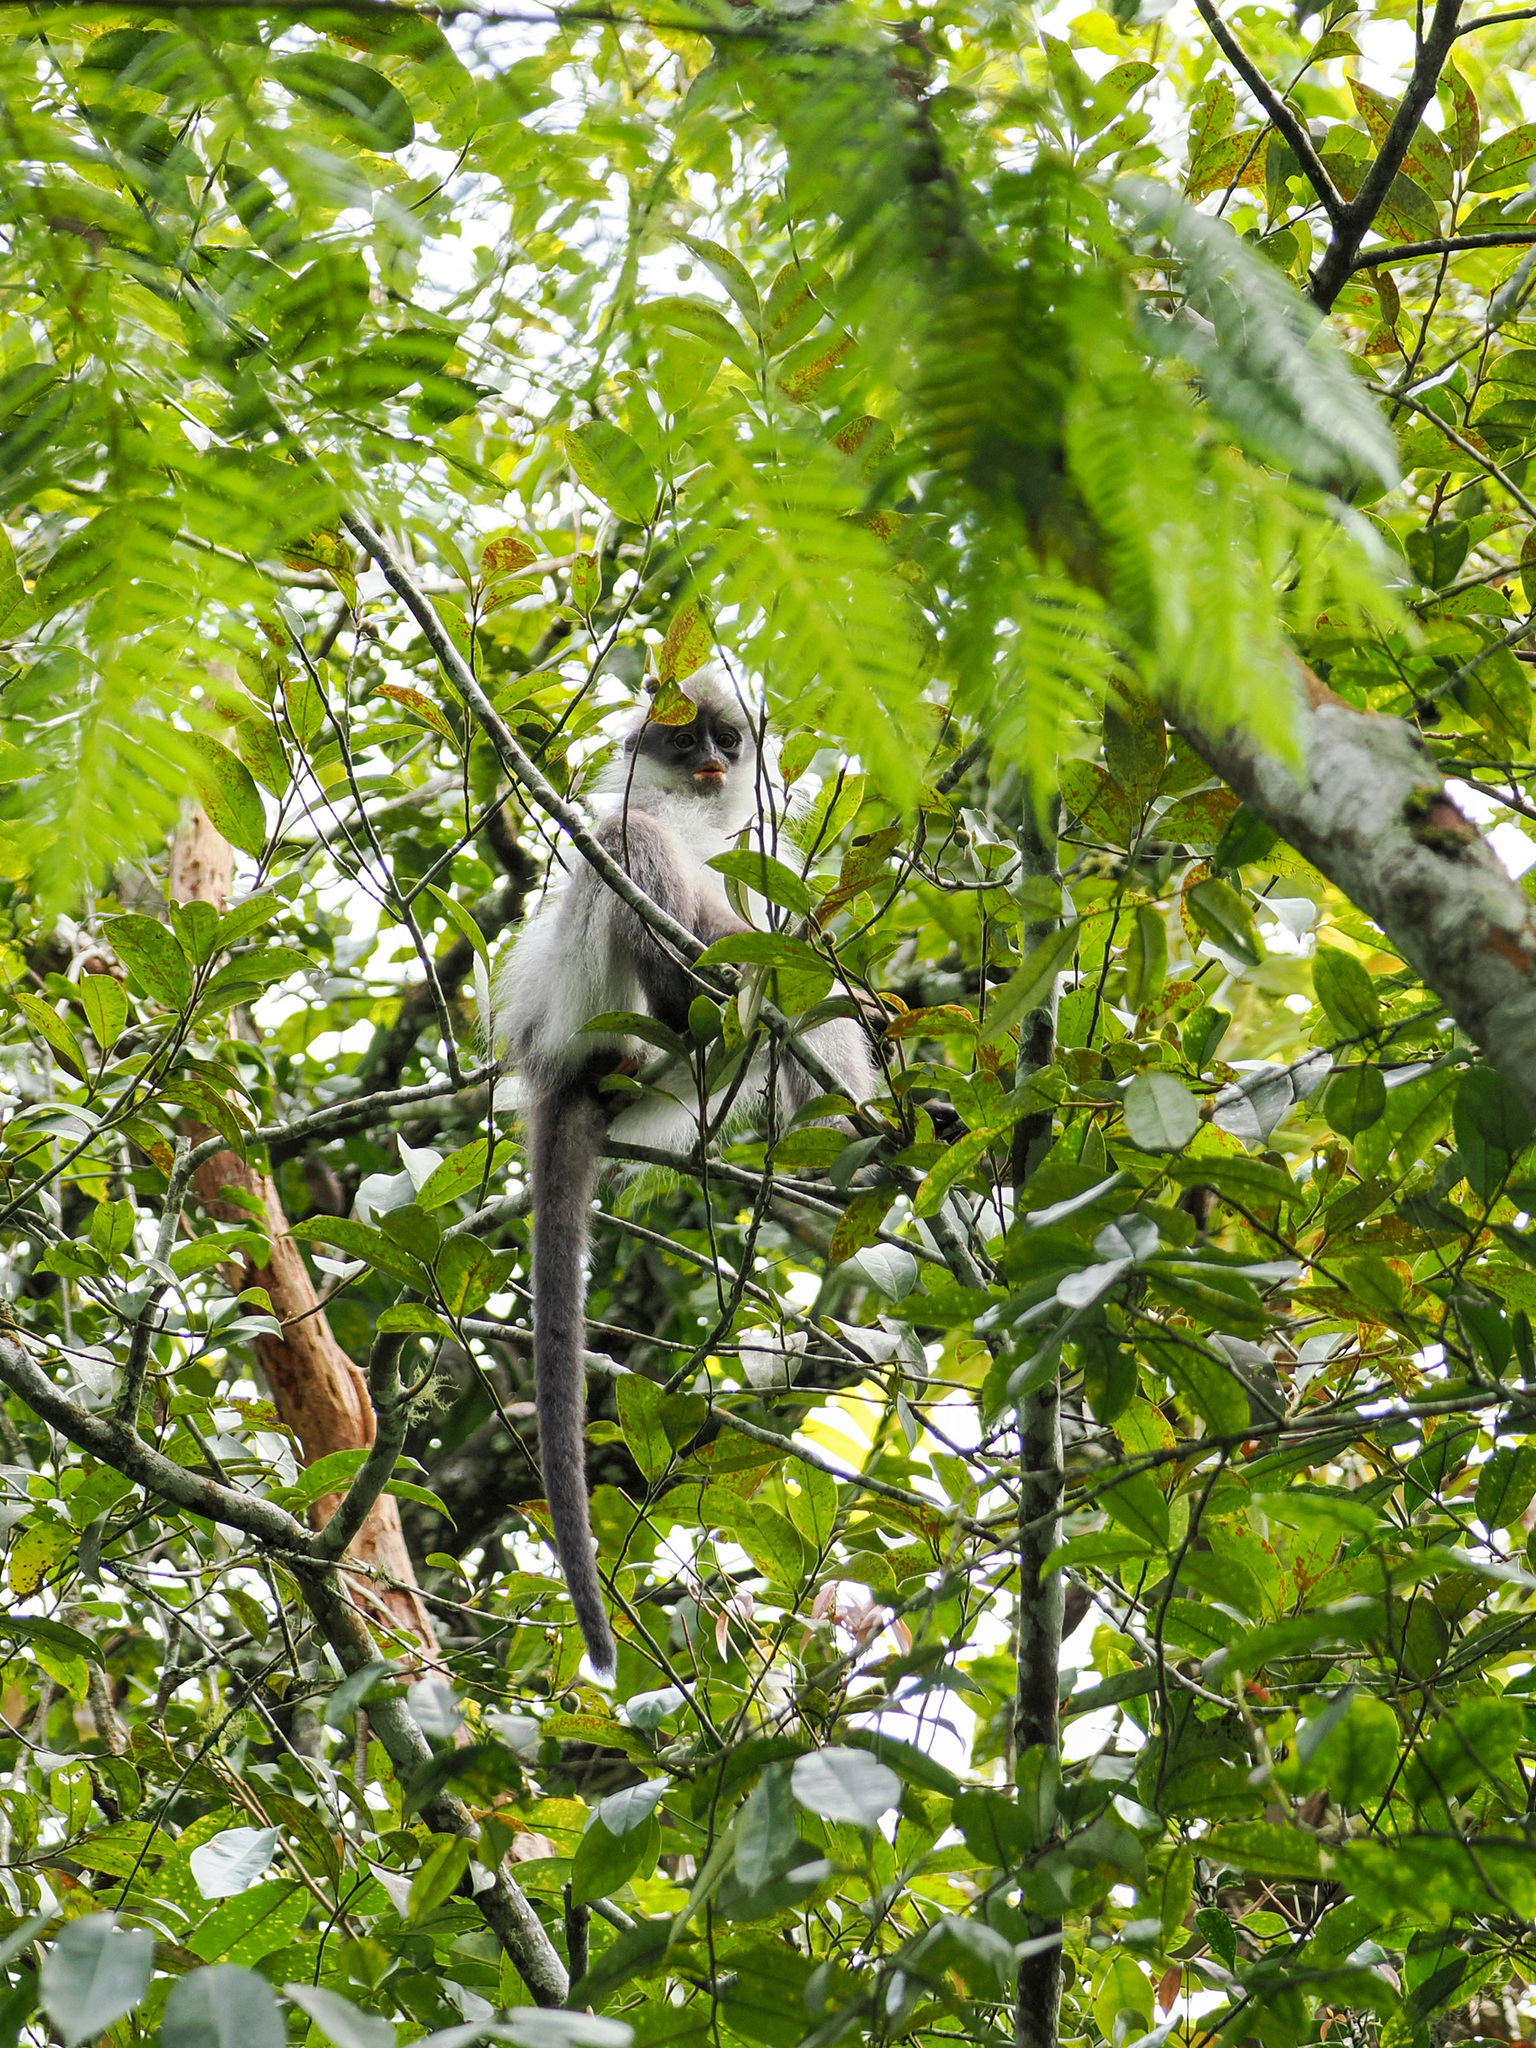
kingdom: Animalia
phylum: Chordata
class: Mammalia
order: Primates
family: Cercopithecidae
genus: Presbytis
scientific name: Presbytis siamensis
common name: White-thighed surili
